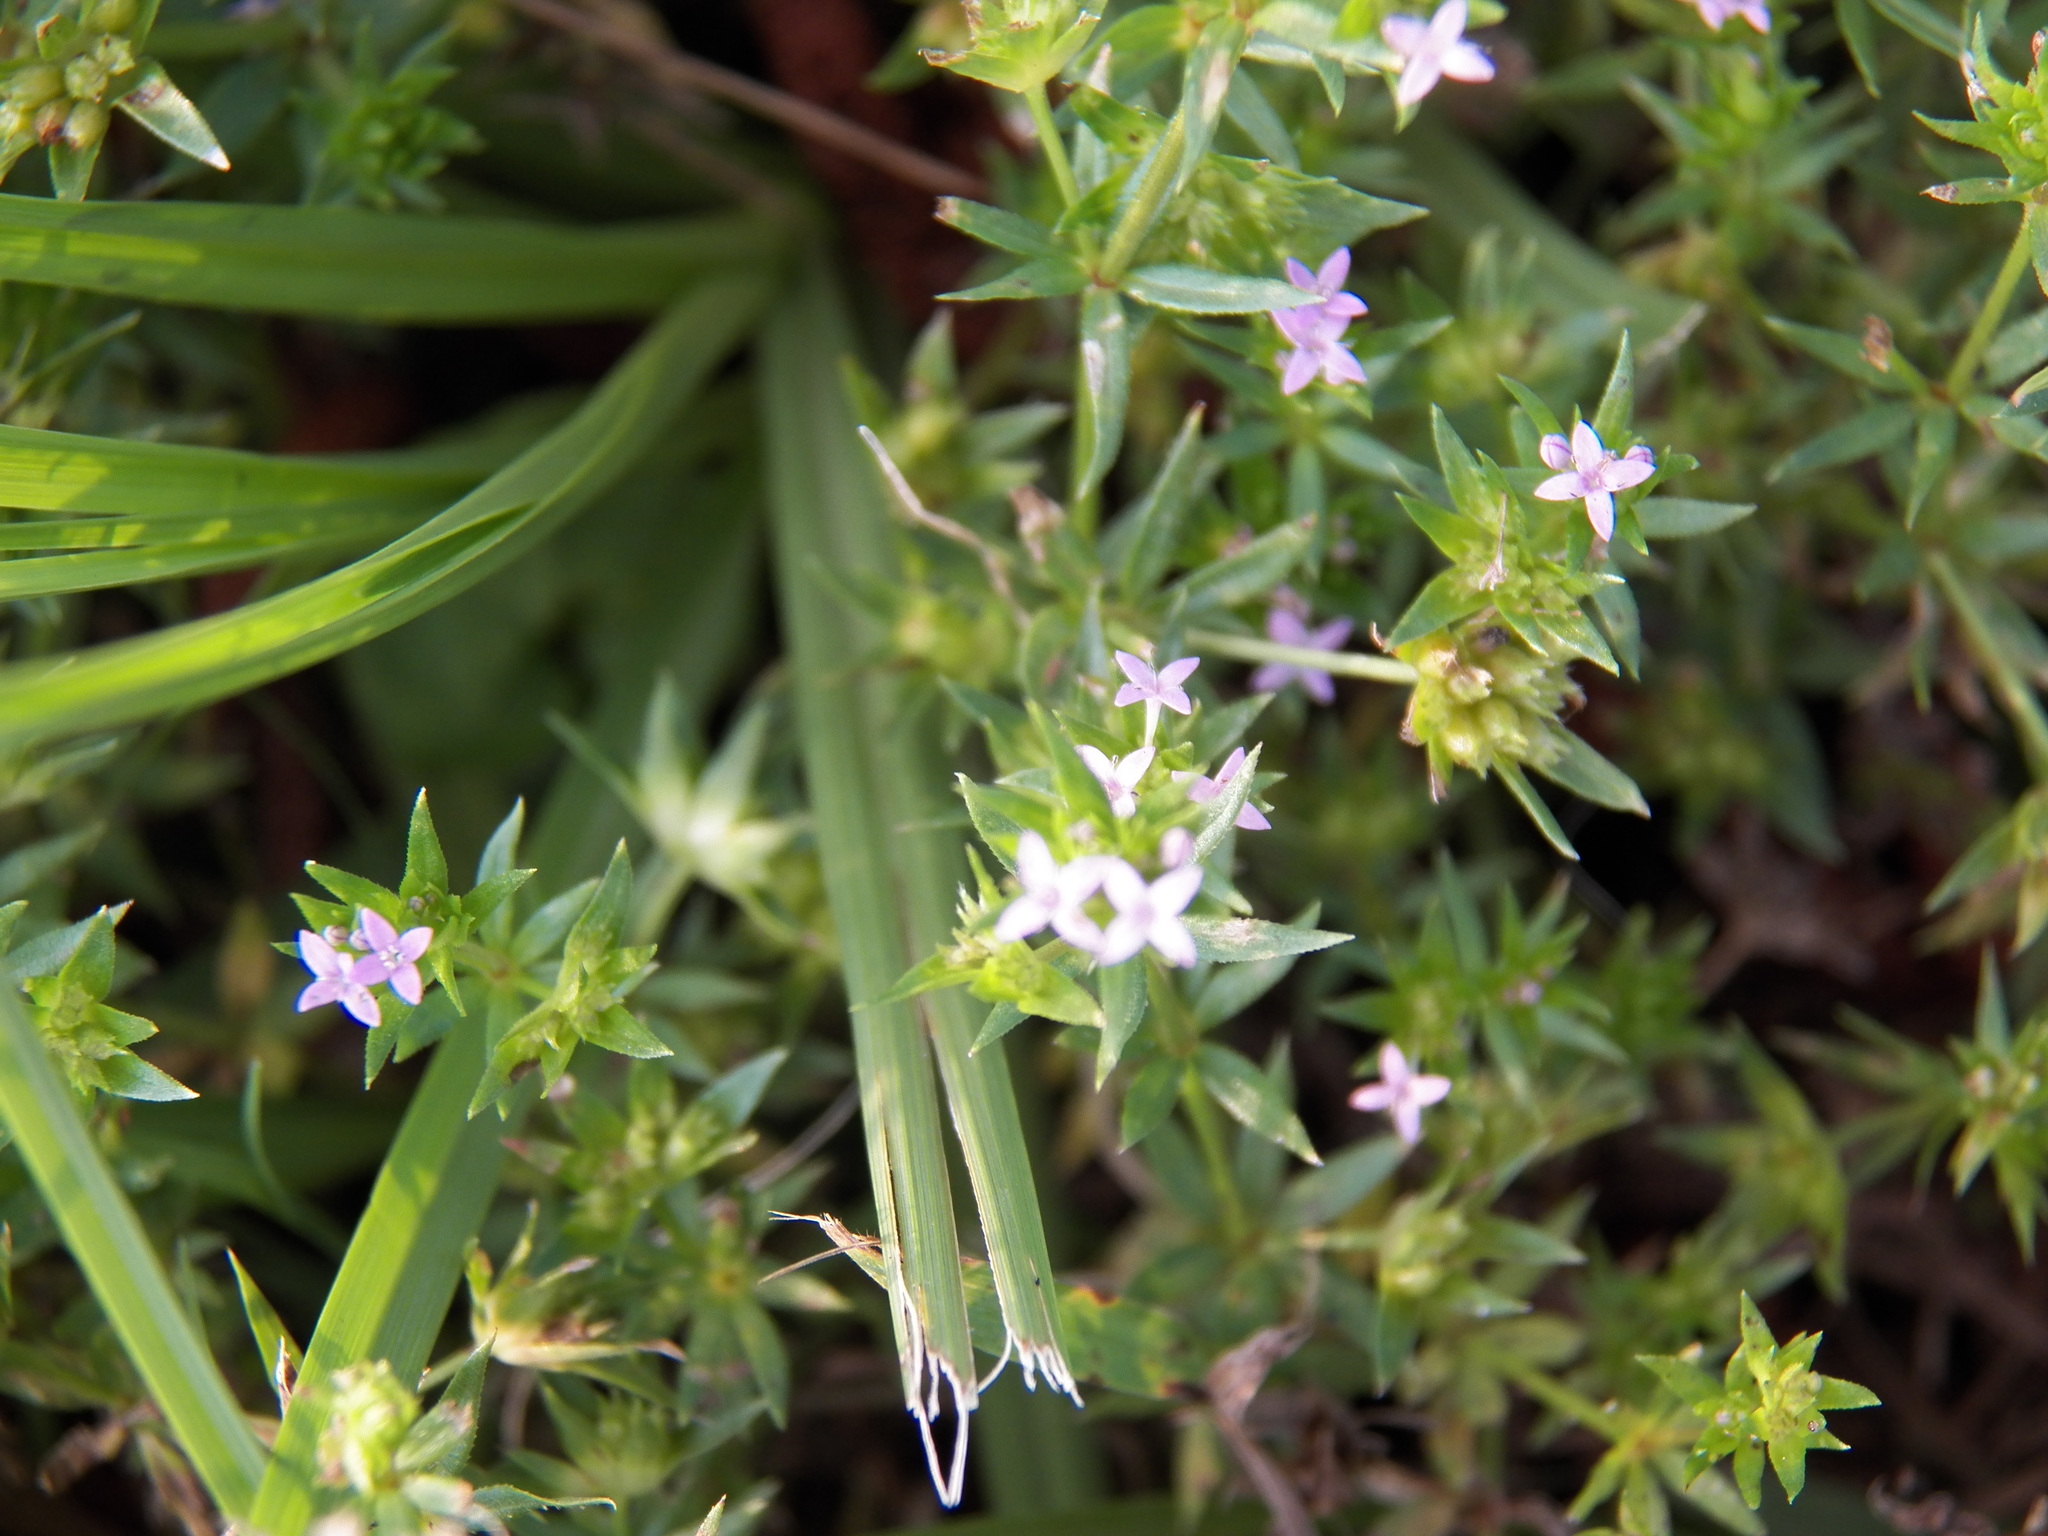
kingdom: Plantae
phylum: Tracheophyta
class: Magnoliopsida
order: Gentianales
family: Rubiaceae
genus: Sherardia
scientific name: Sherardia arvensis
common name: Field madder
